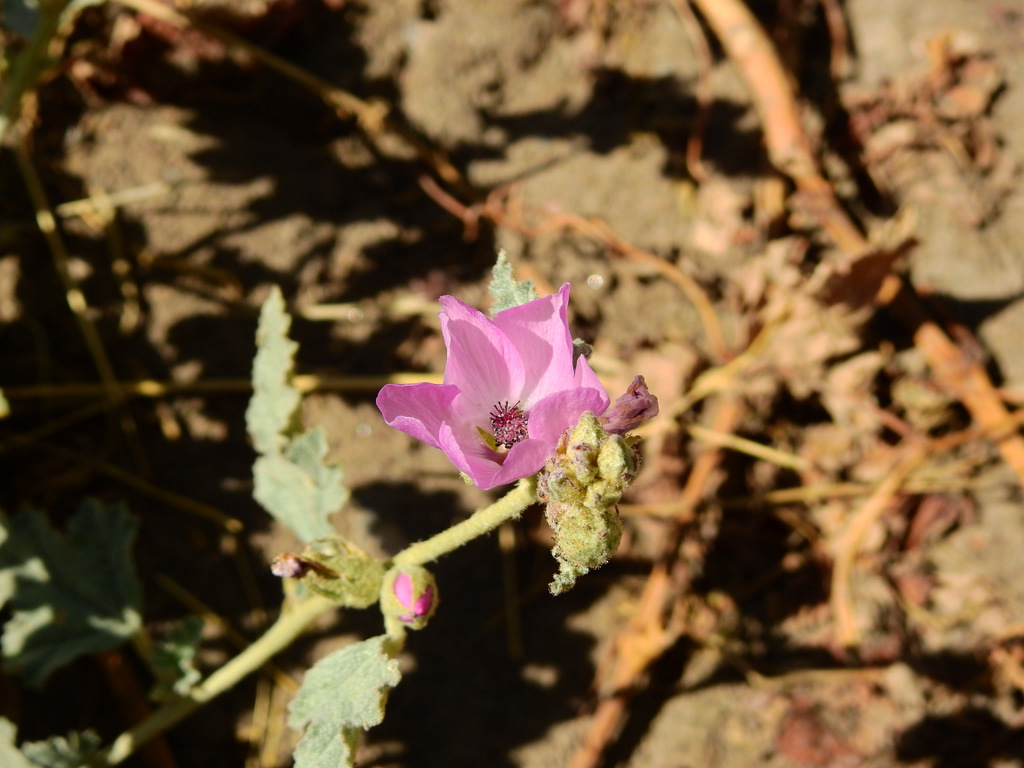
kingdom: Plantae
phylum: Tracheophyta
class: Magnoliopsida
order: Malvales
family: Malvaceae
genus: Sphaeralcea
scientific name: Sphaeralcea mendocina
